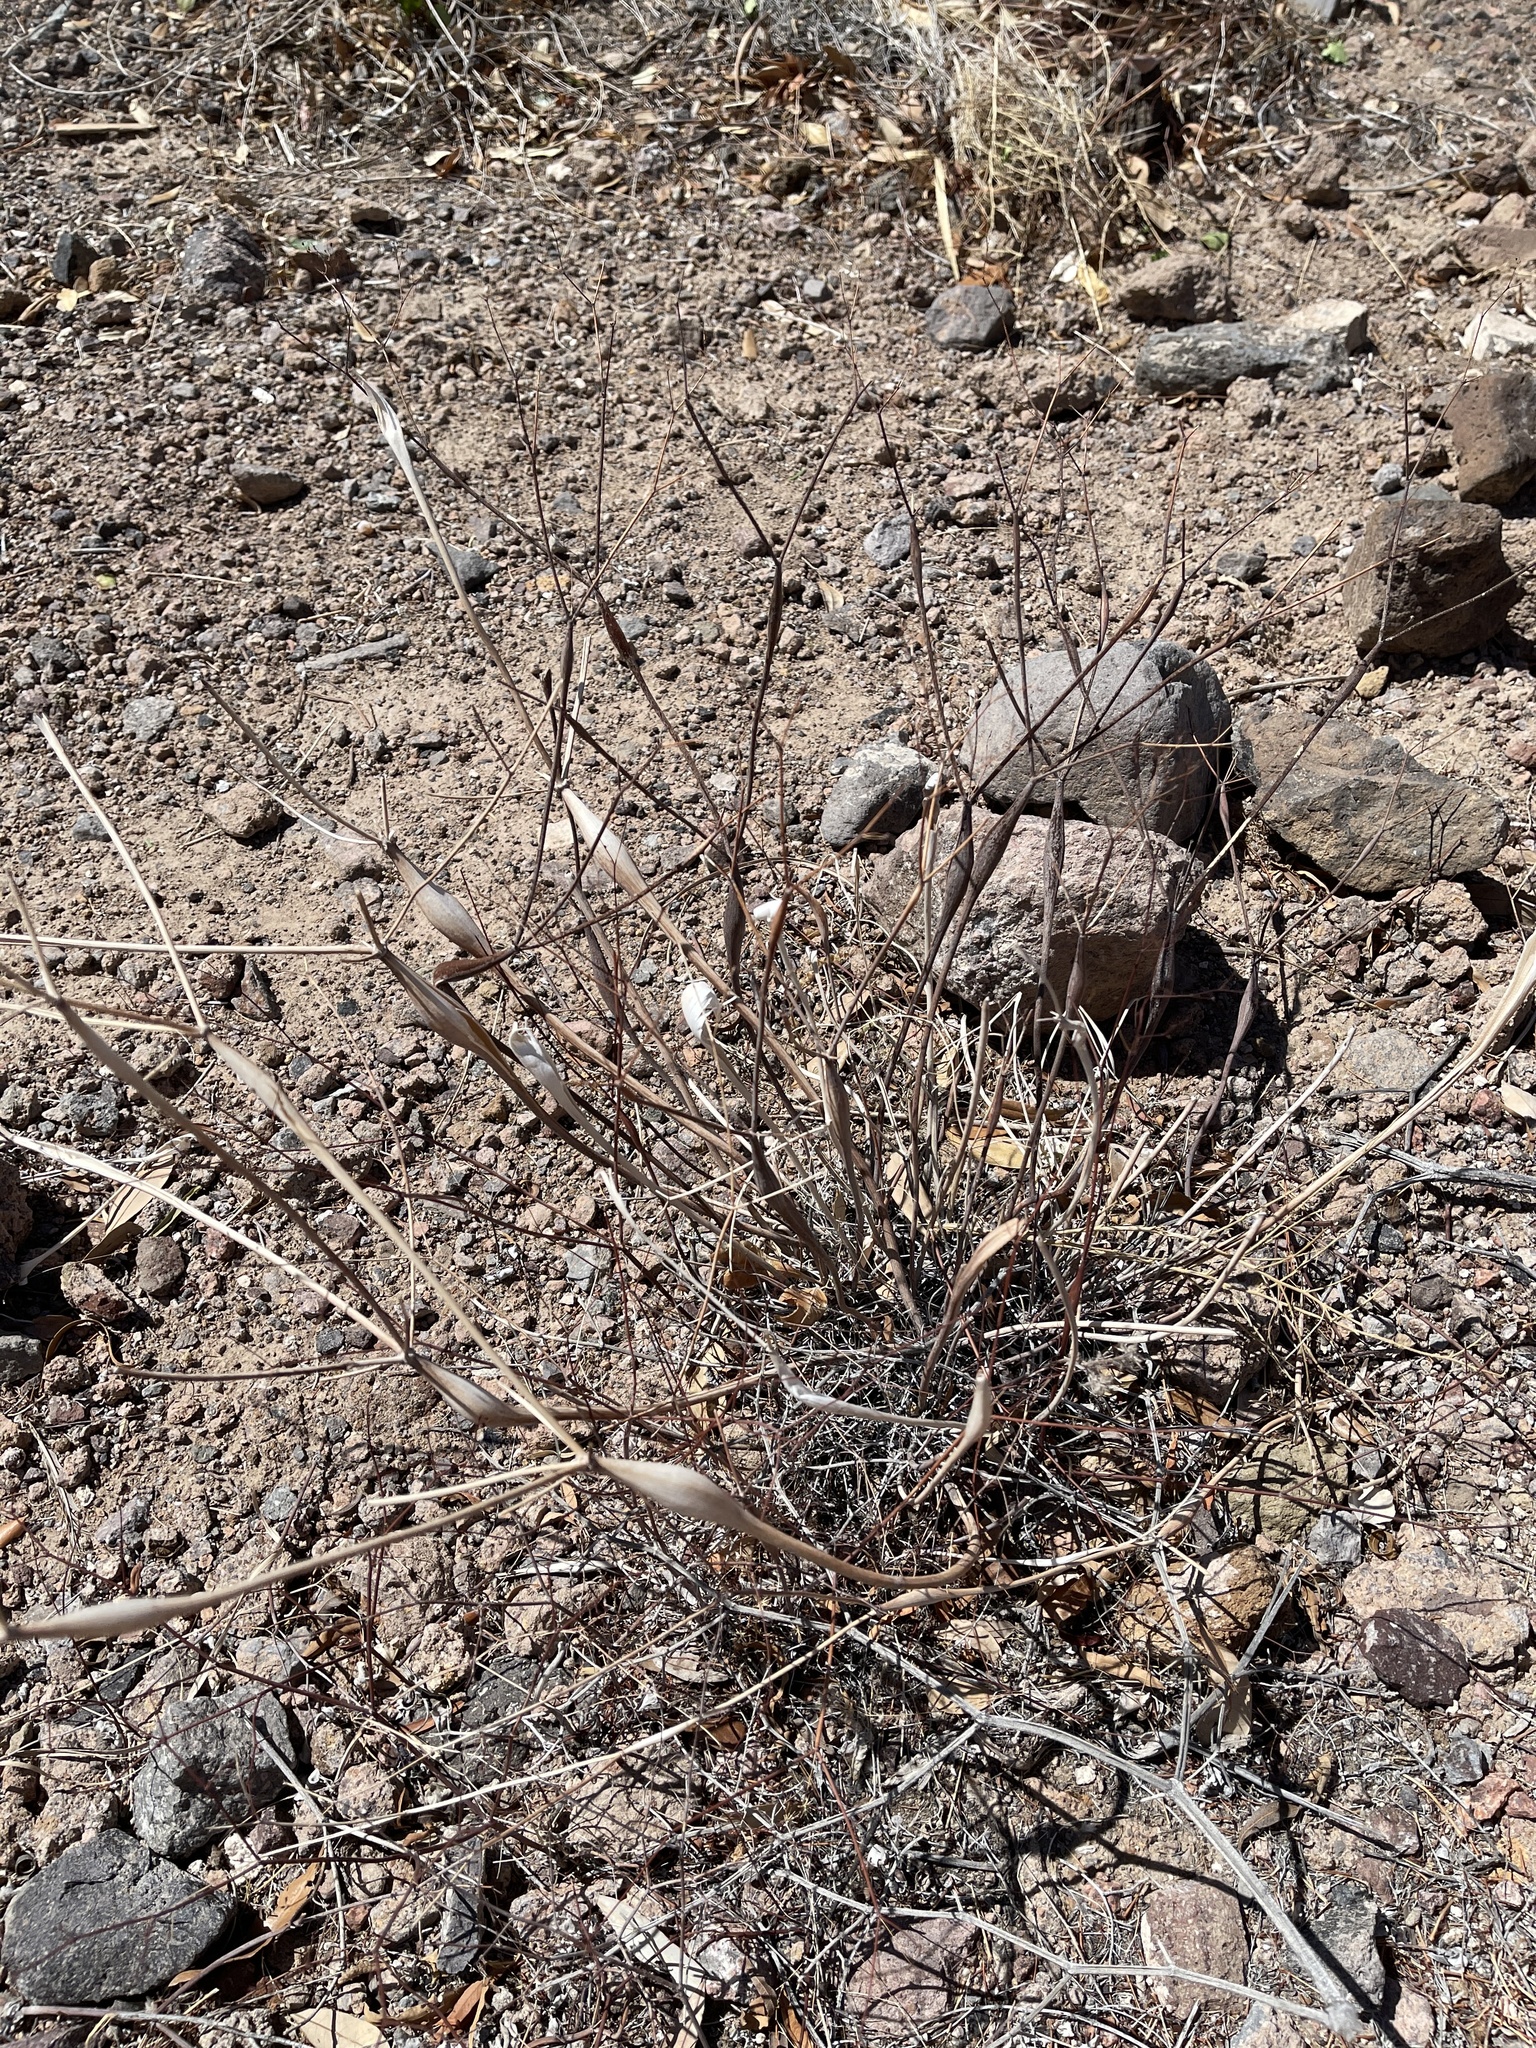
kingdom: Plantae
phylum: Tracheophyta
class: Magnoliopsida
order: Caryophyllales
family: Polygonaceae
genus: Eriogonum
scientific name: Eriogonum inflatum
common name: Desert trumpet
